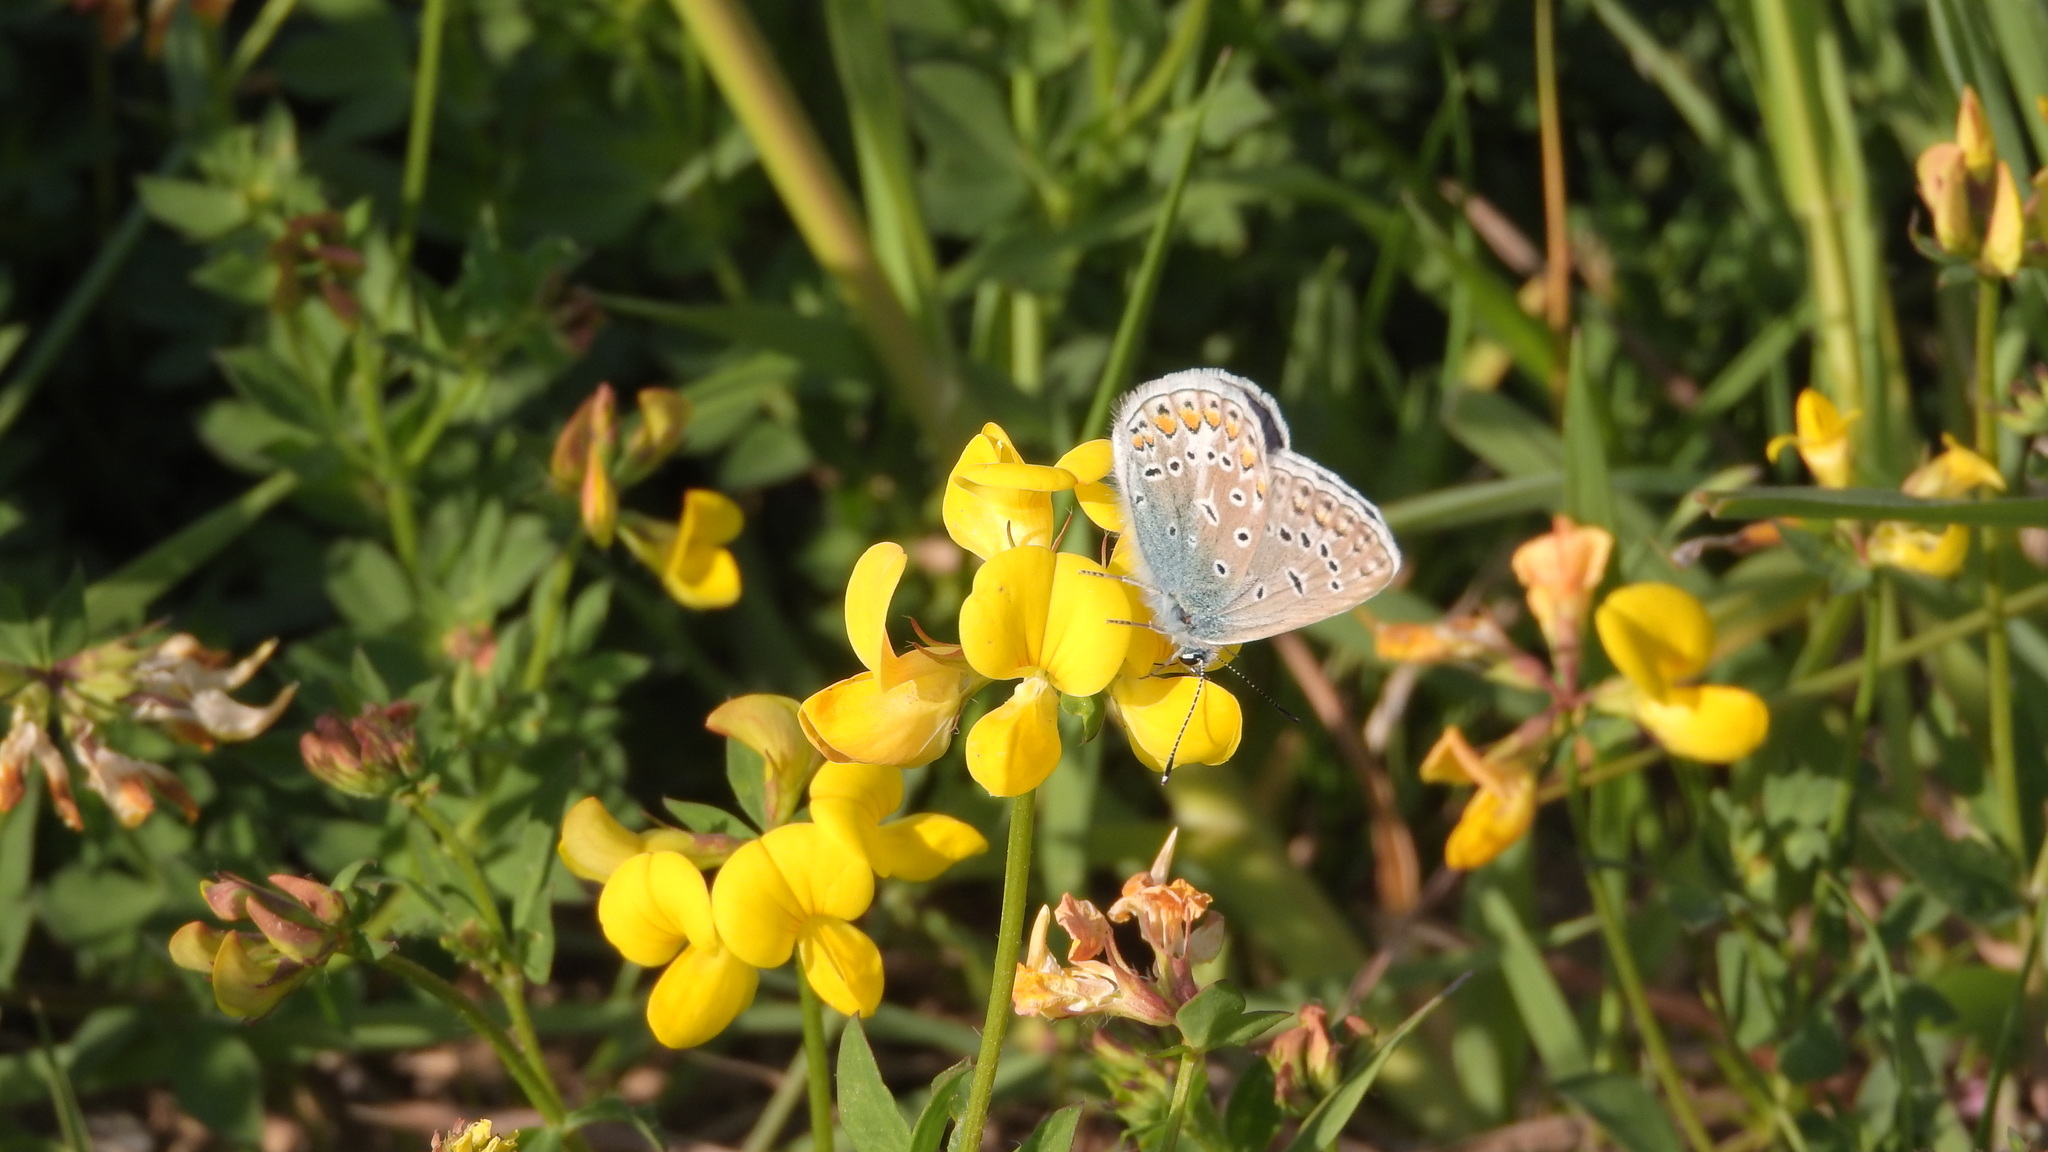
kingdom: Animalia
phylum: Arthropoda
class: Insecta
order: Lepidoptera
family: Lycaenidae
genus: Polyommatus
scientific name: Polyommatus icarus
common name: Common blue
